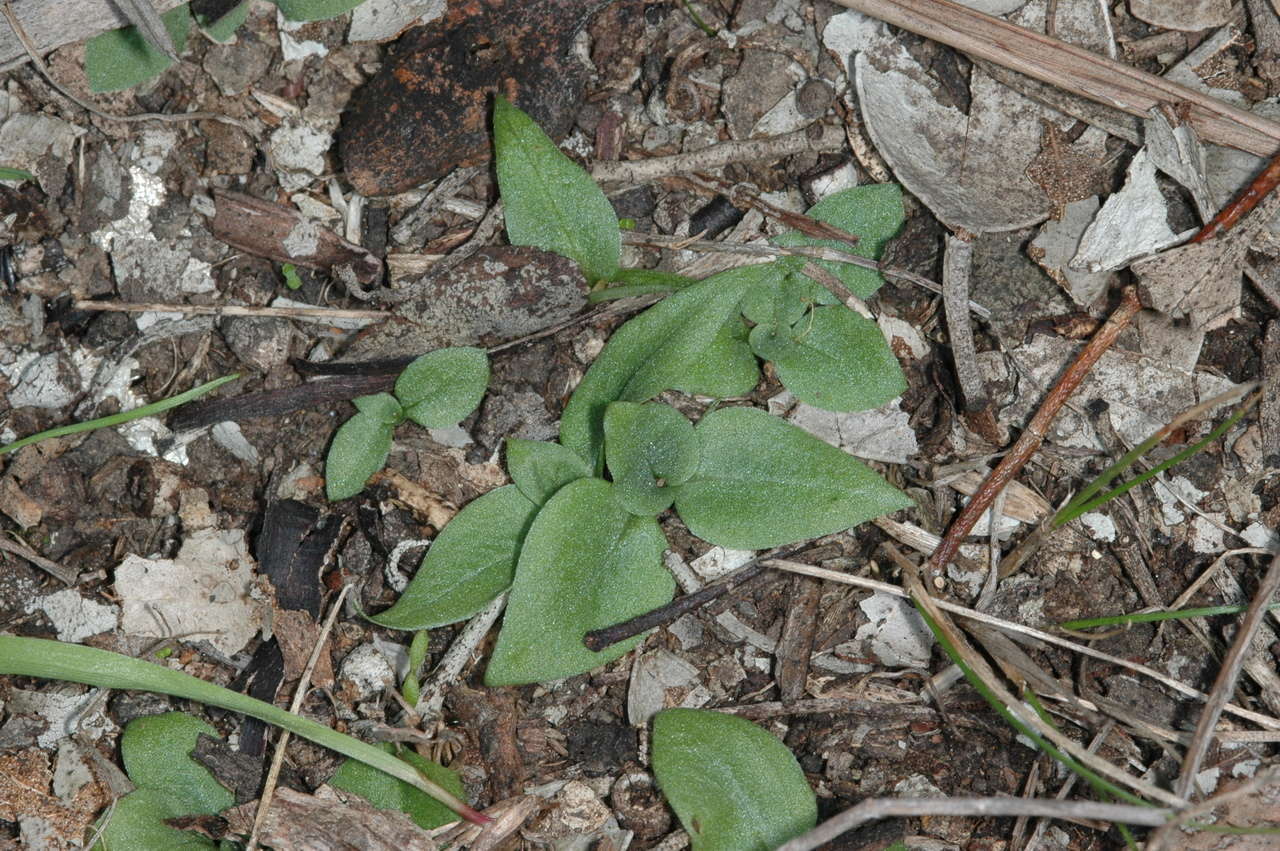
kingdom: Plantae
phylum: Tracheophyta
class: Liliopsida
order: Asparagales
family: Orchidaceae
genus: Pterostylis
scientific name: Pterostylis truncata
